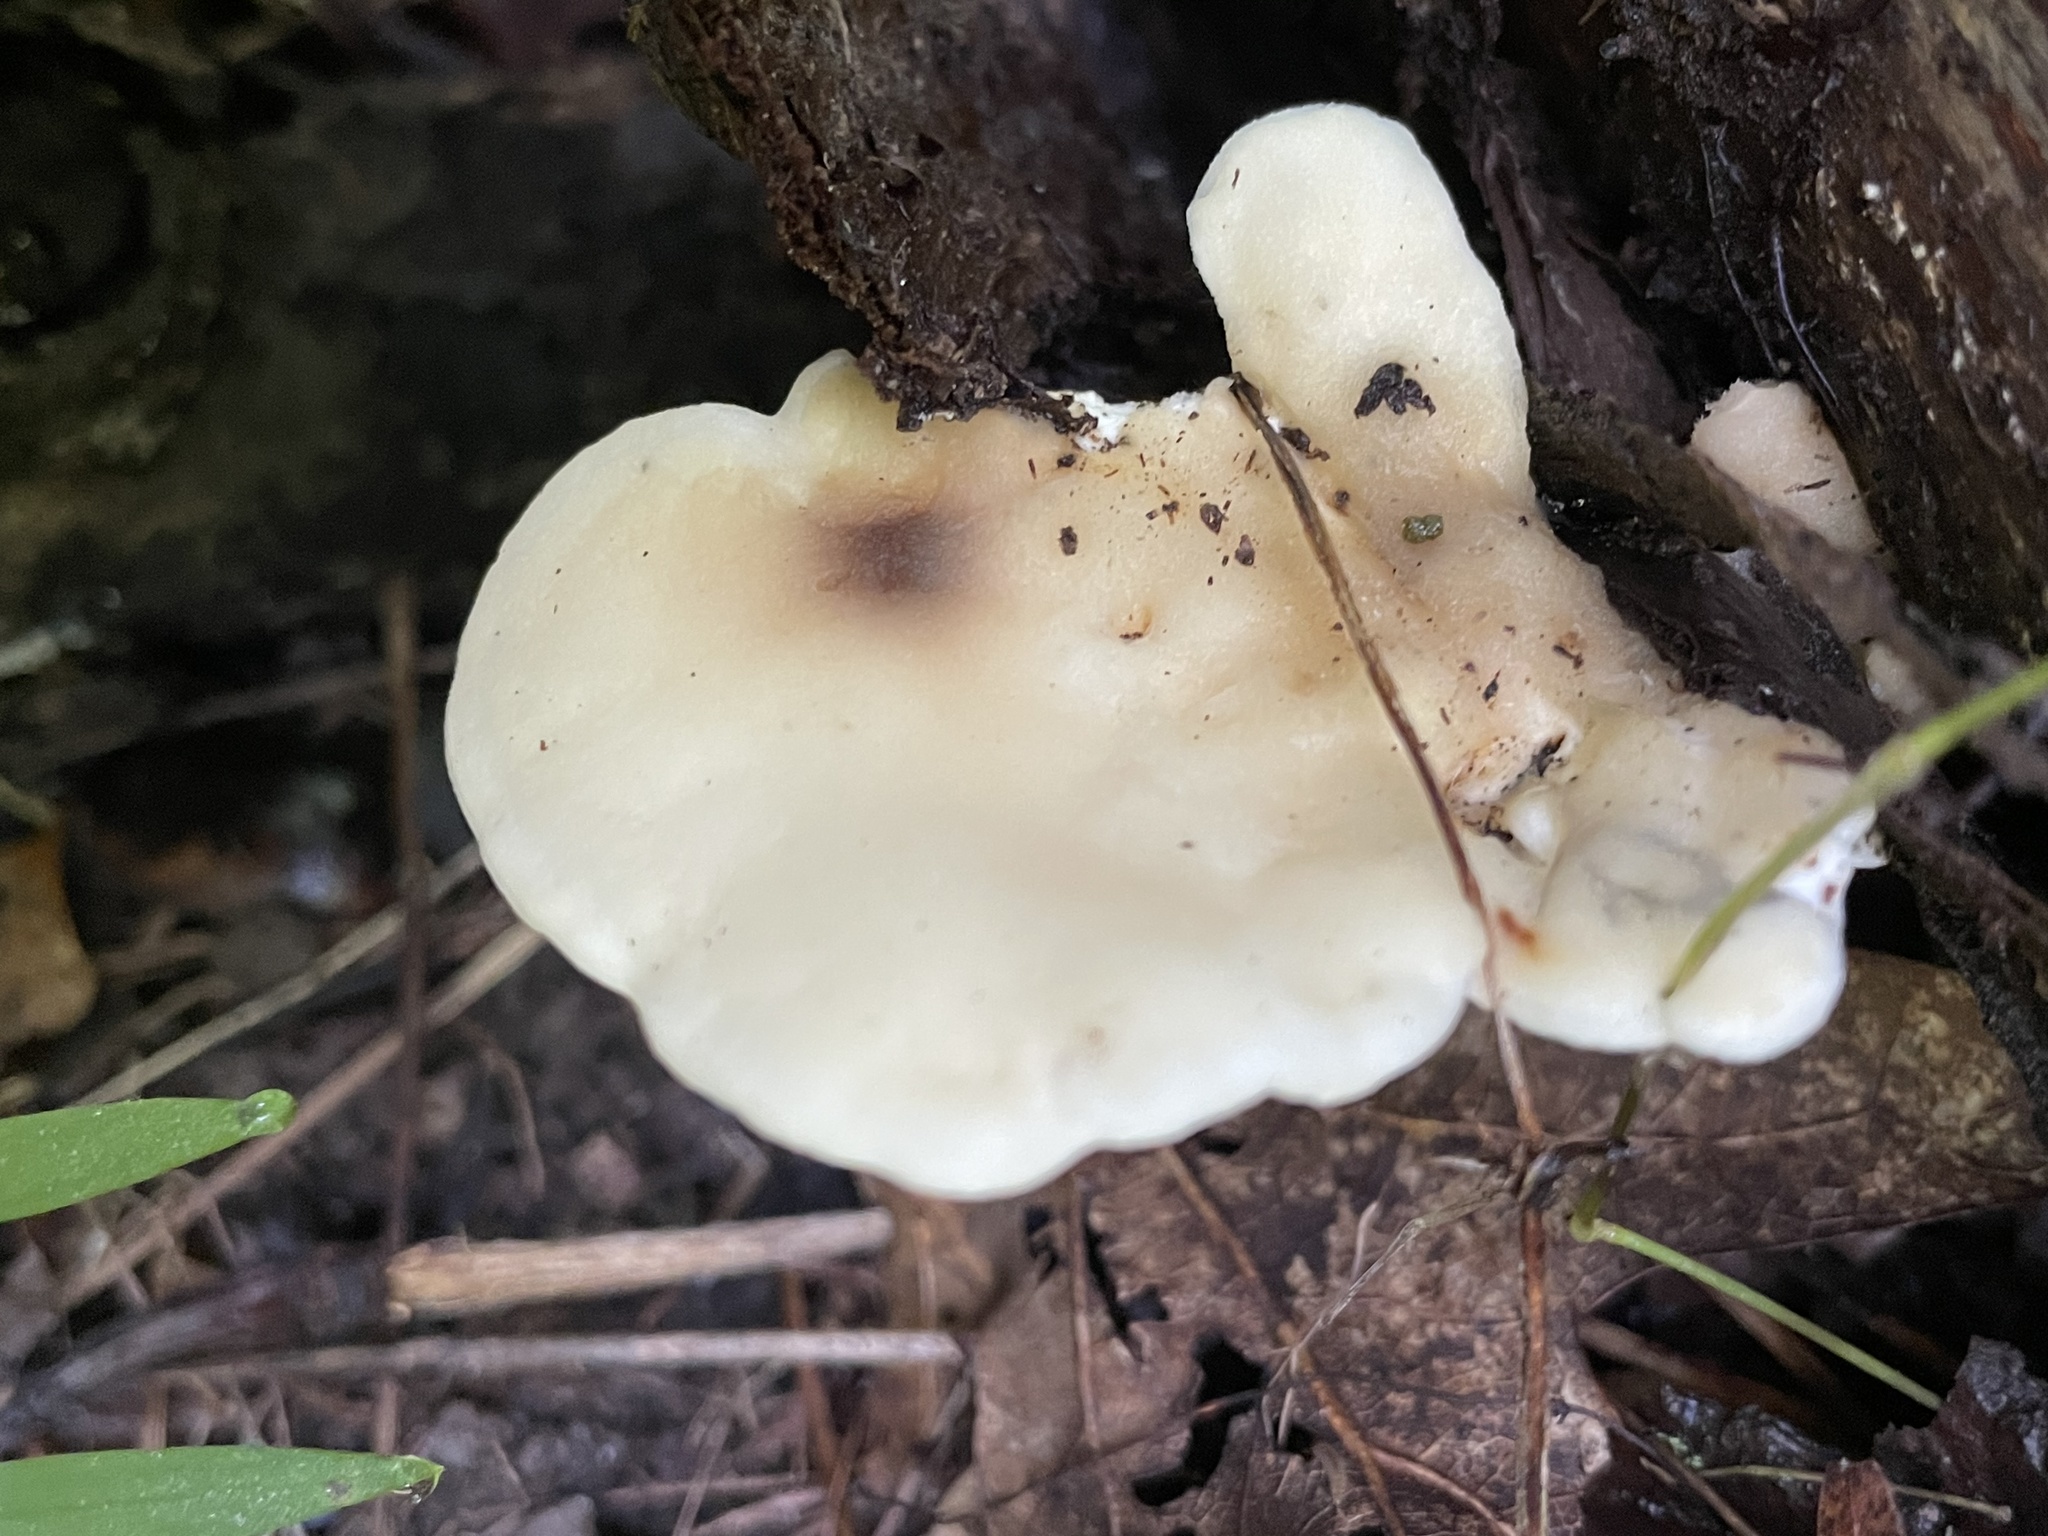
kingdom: Fungi
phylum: Basidiomycota
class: Agaricomycetes
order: Polyporales
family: Steccherinaceae
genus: Loweomyces
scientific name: Loweomyces fractipes
